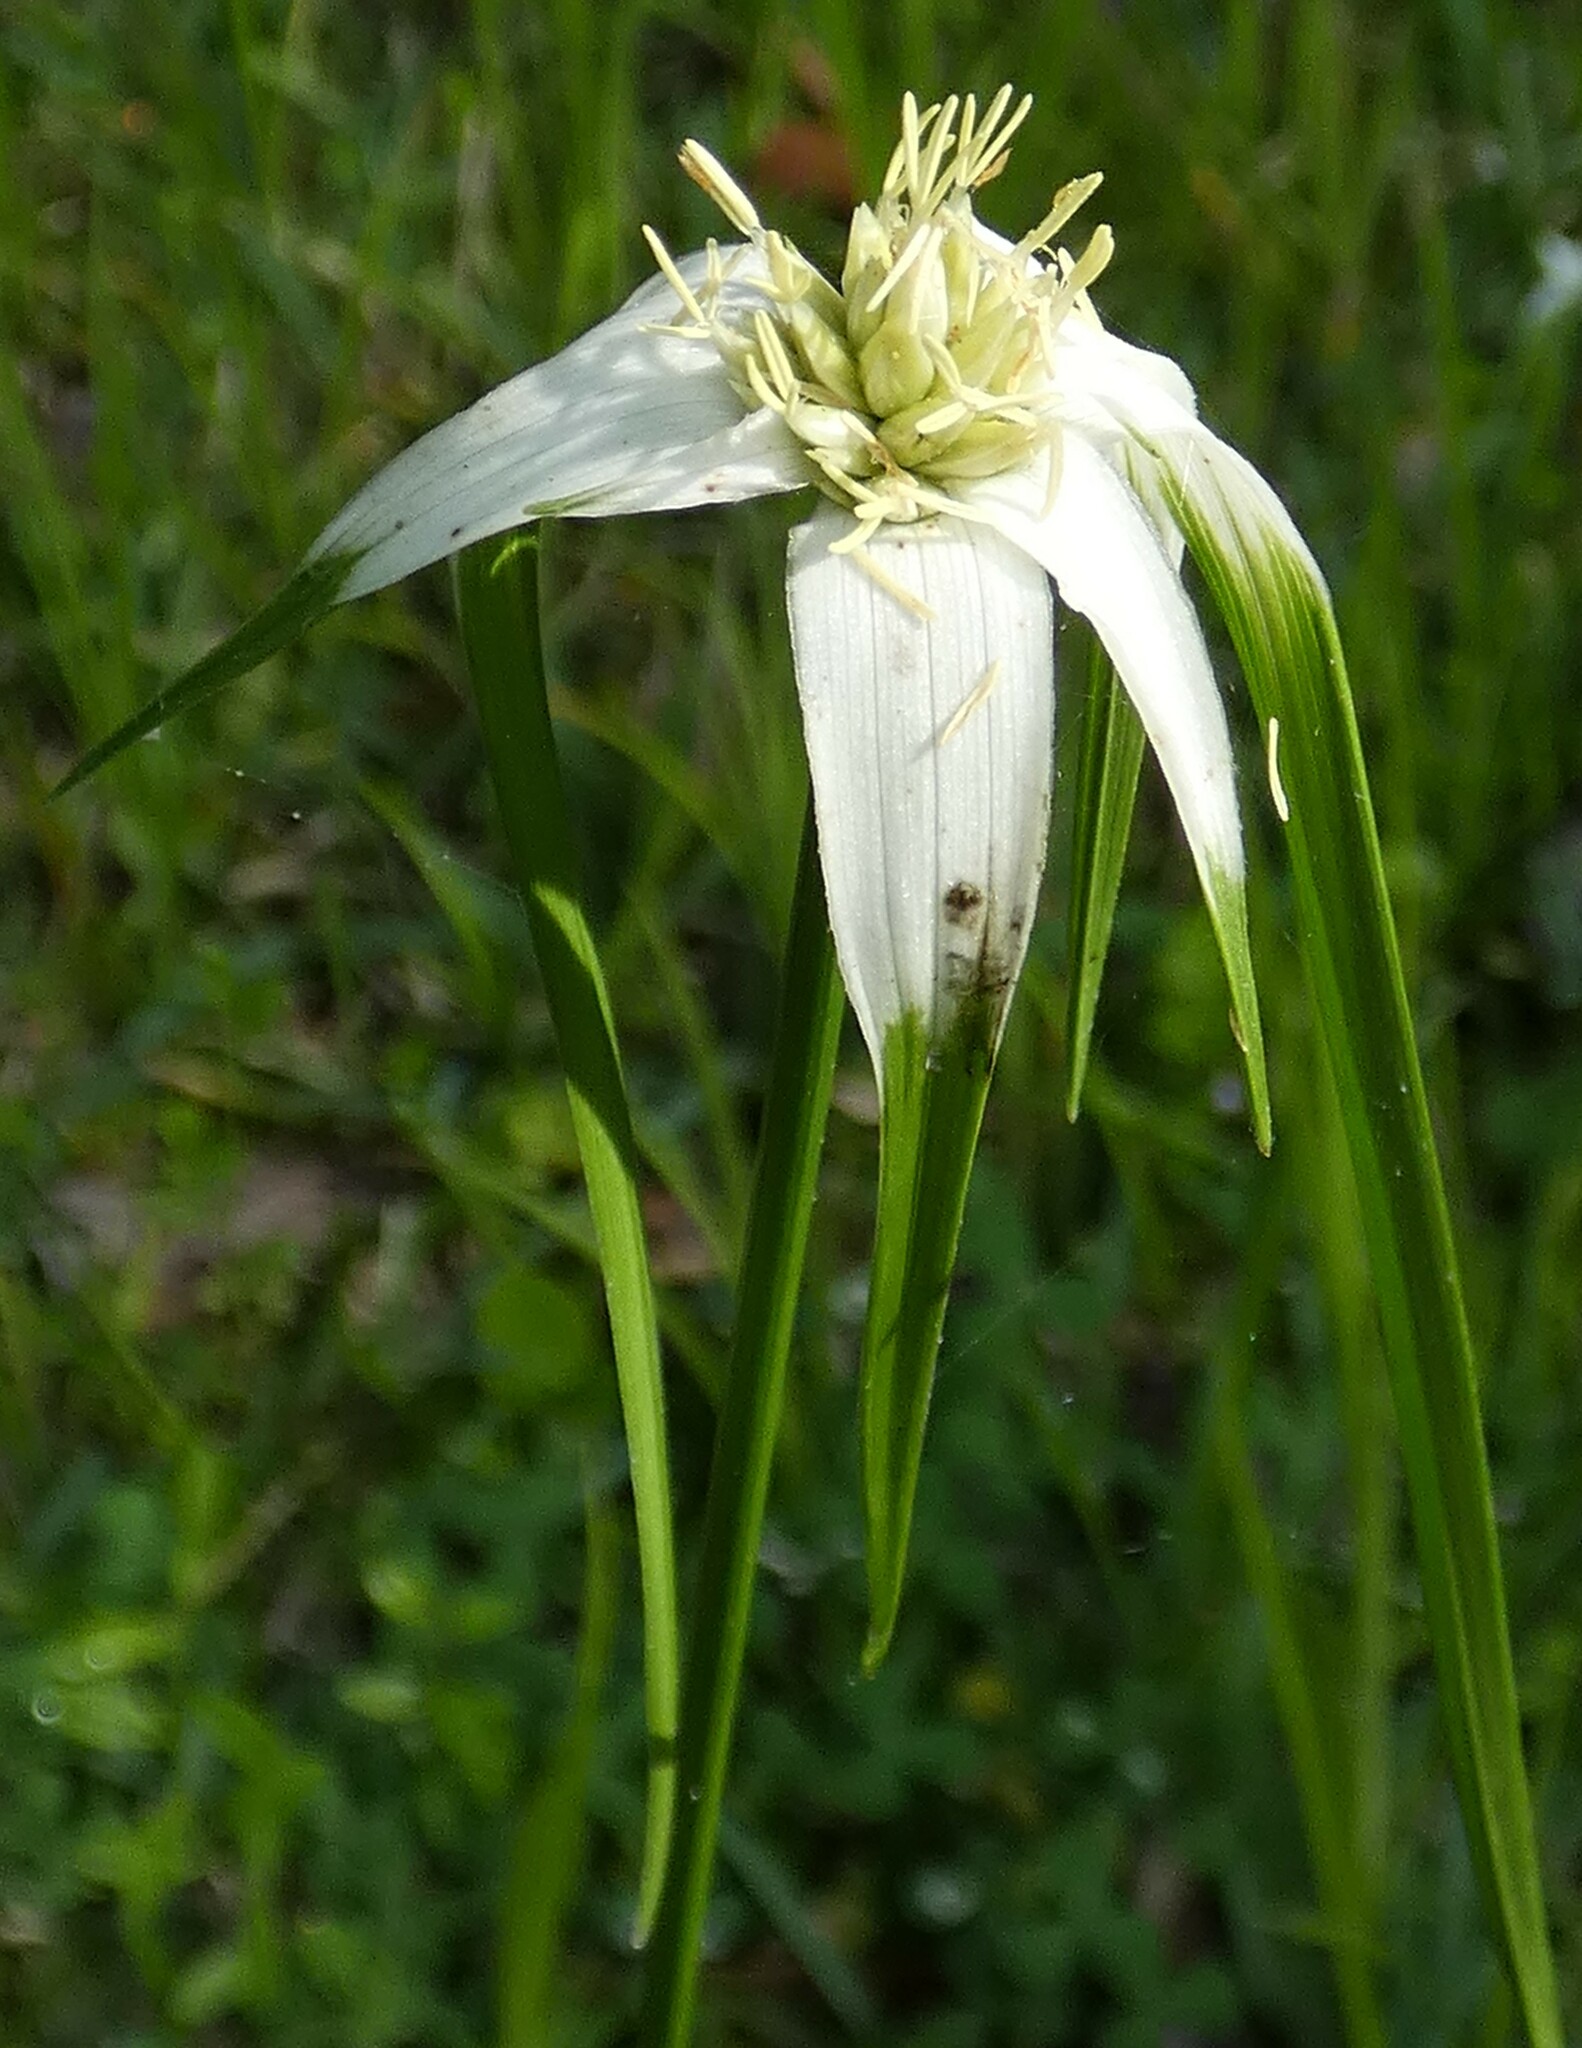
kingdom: Plantae
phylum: Tracheophyta
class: Liliopsida
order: Poales
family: Cyperaceae
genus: Rhynchospora
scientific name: Rhynchospora latifolia
